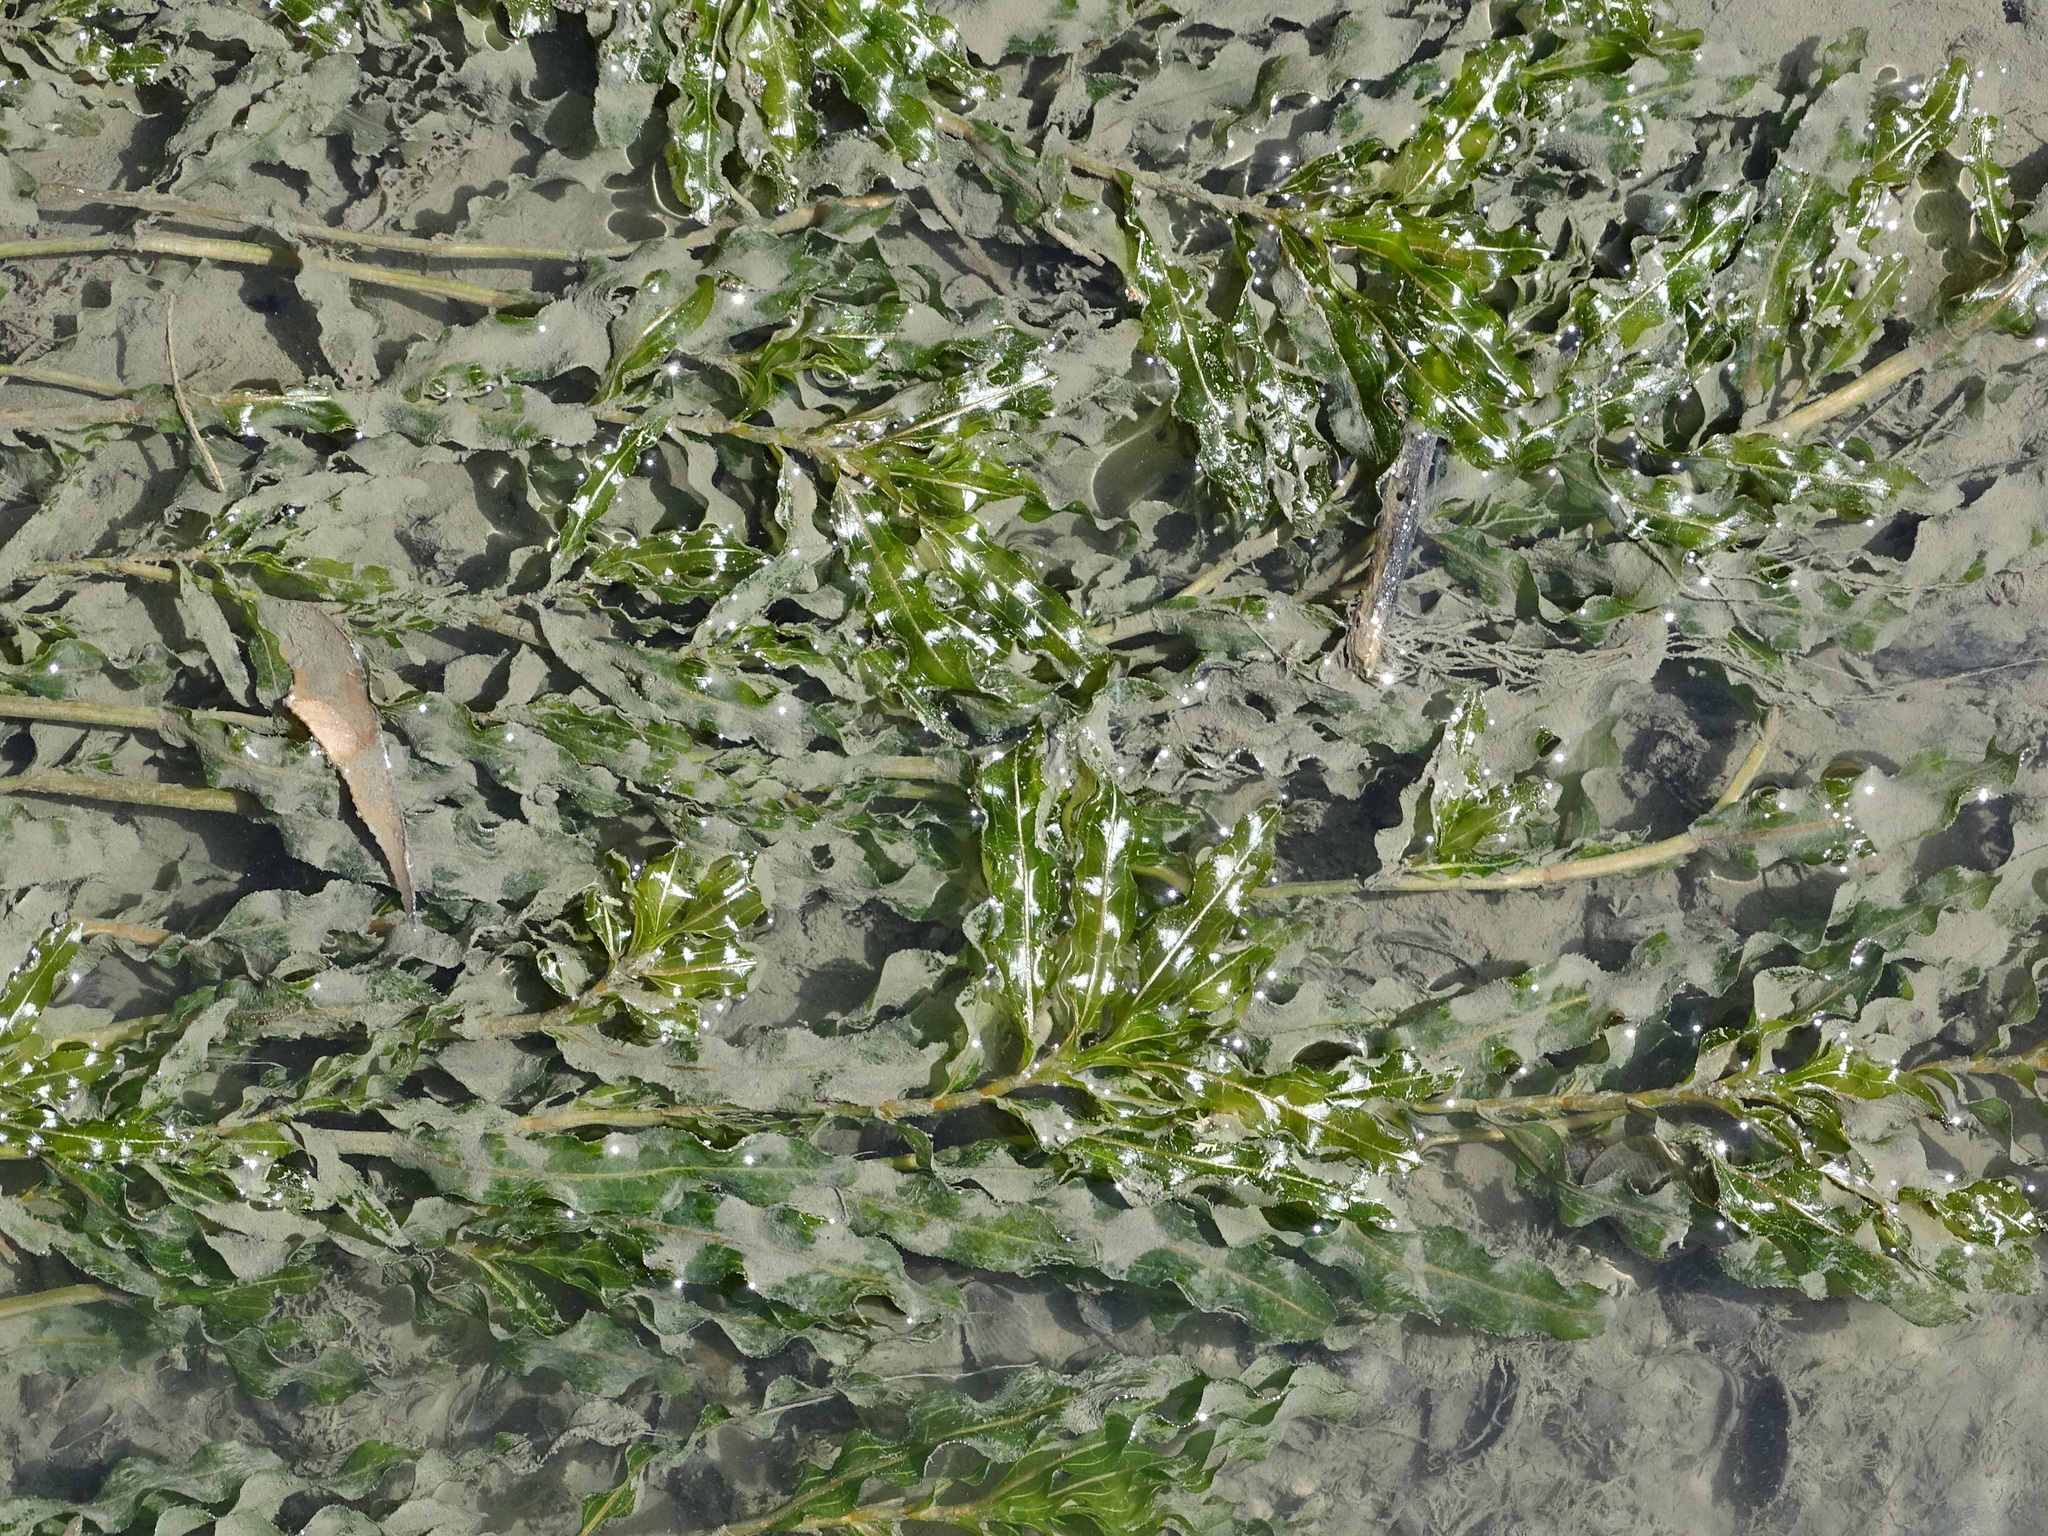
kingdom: Plantae
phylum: Tracheophyta
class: Liliopsida
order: Alismatales
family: Potamogetonaceae
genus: Potamogeton
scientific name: Potamogeton crispus
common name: Curled pondweed
